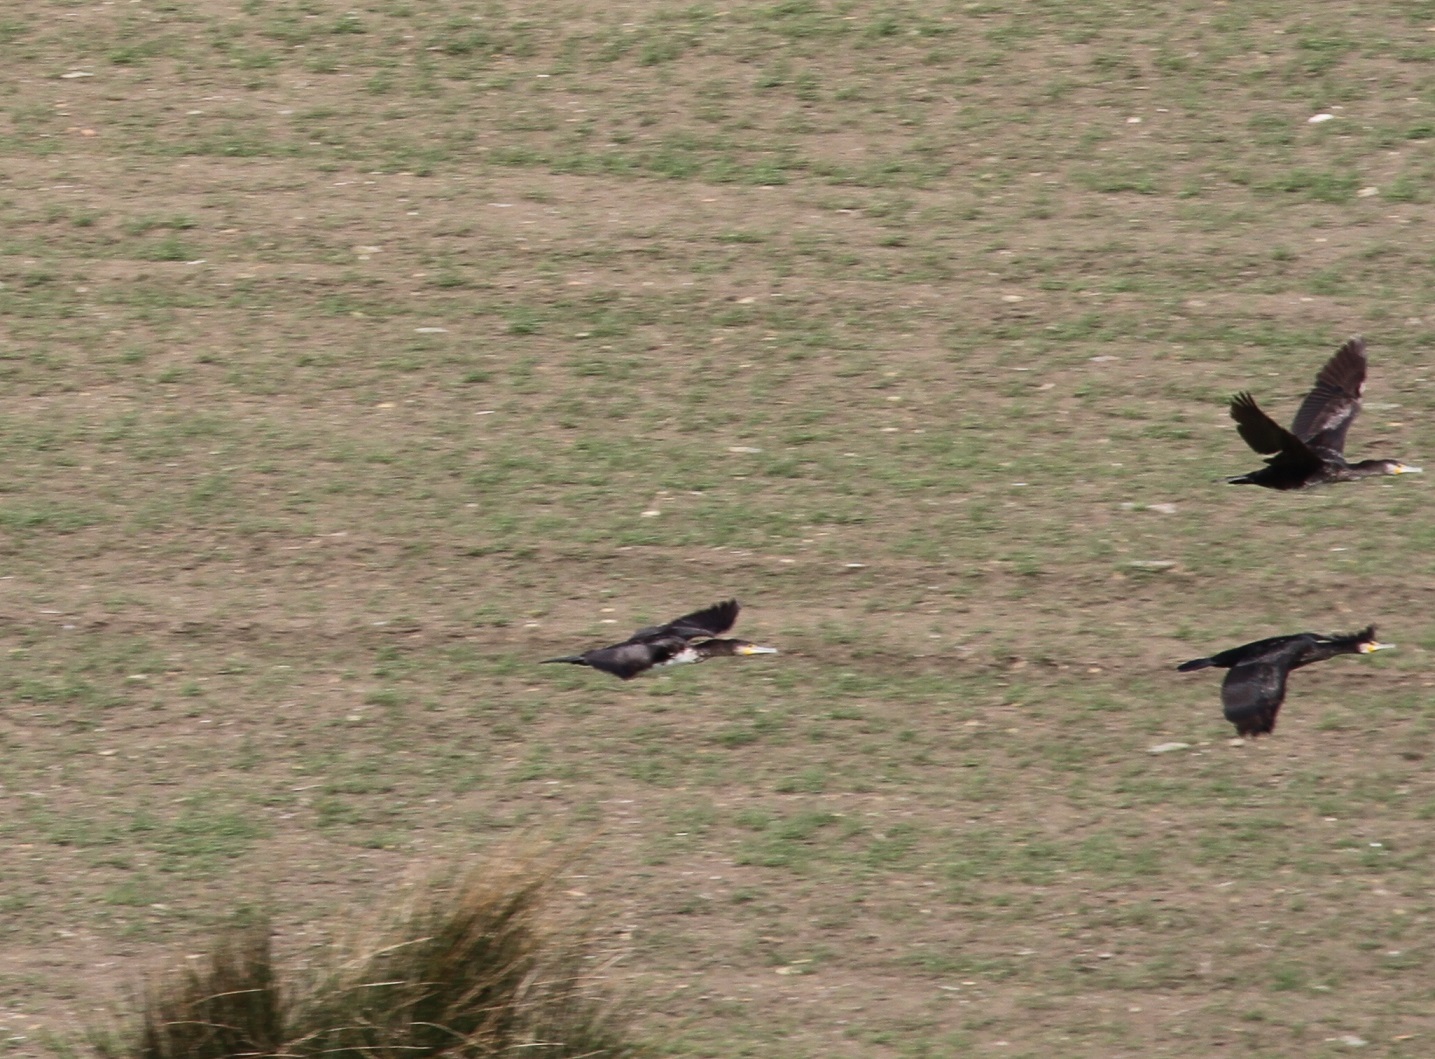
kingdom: Animalia
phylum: Chordata
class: Aves
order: Suliformes
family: Phalacrocoracidae
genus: Phalacrocorax
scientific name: Phalacrocorax carbo
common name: Great cormorant
